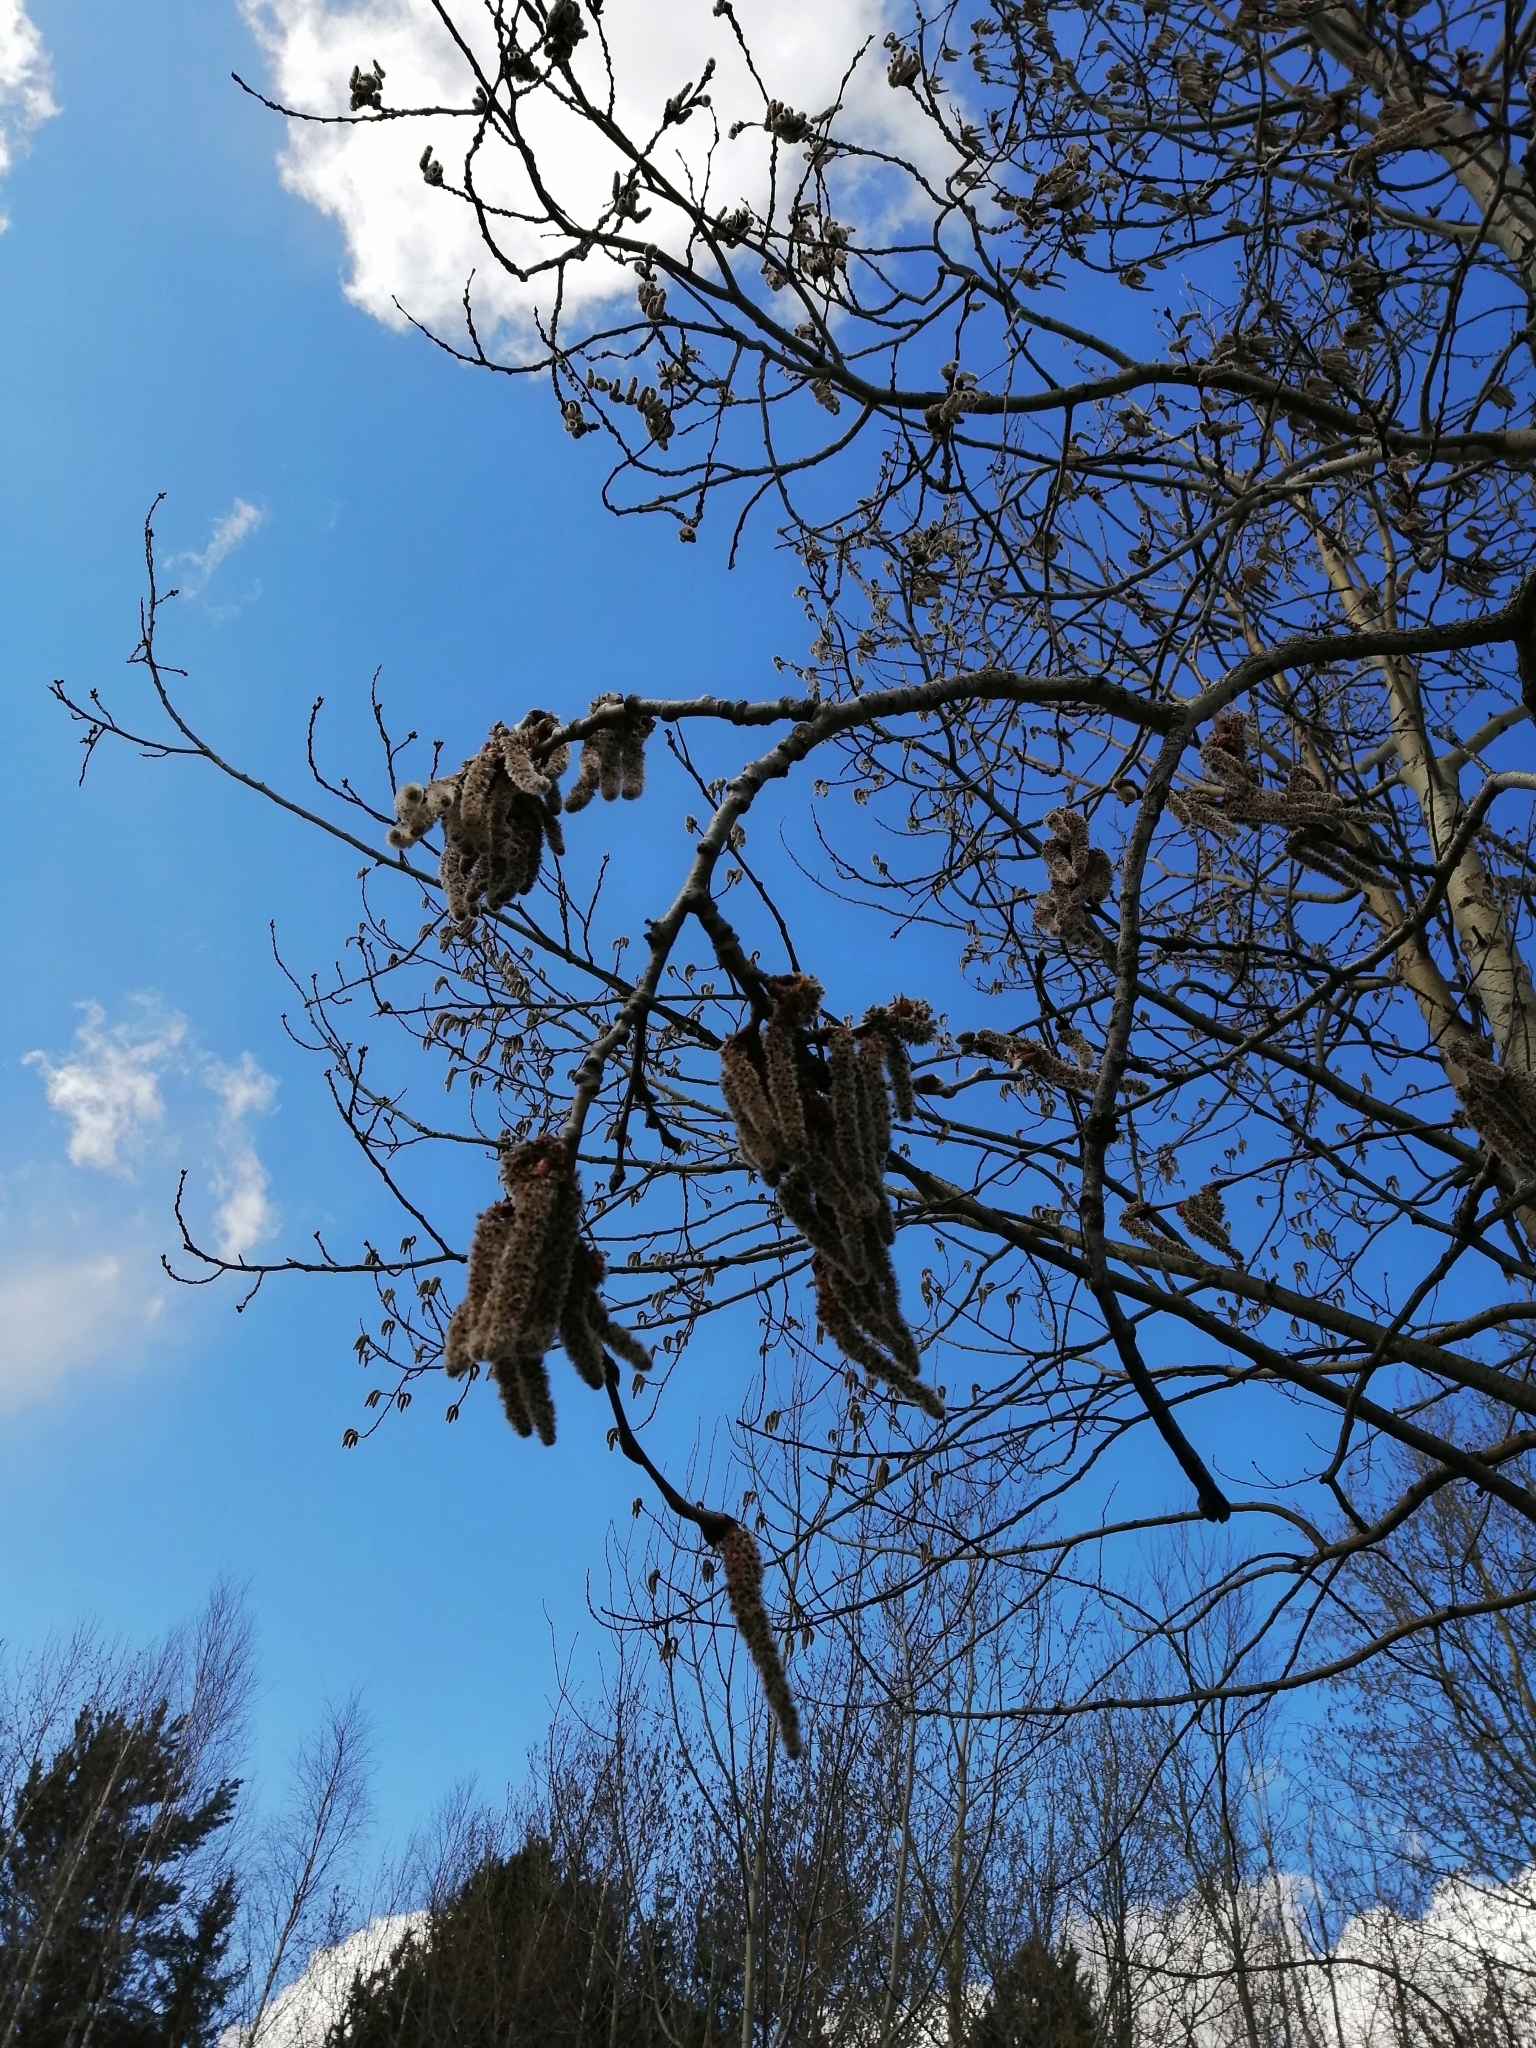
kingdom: Plantae
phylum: Tracheophyta
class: Magnoliopsida
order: Malpighiales
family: Salicaceae
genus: Populus
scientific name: Populus tremula
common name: European aspen
